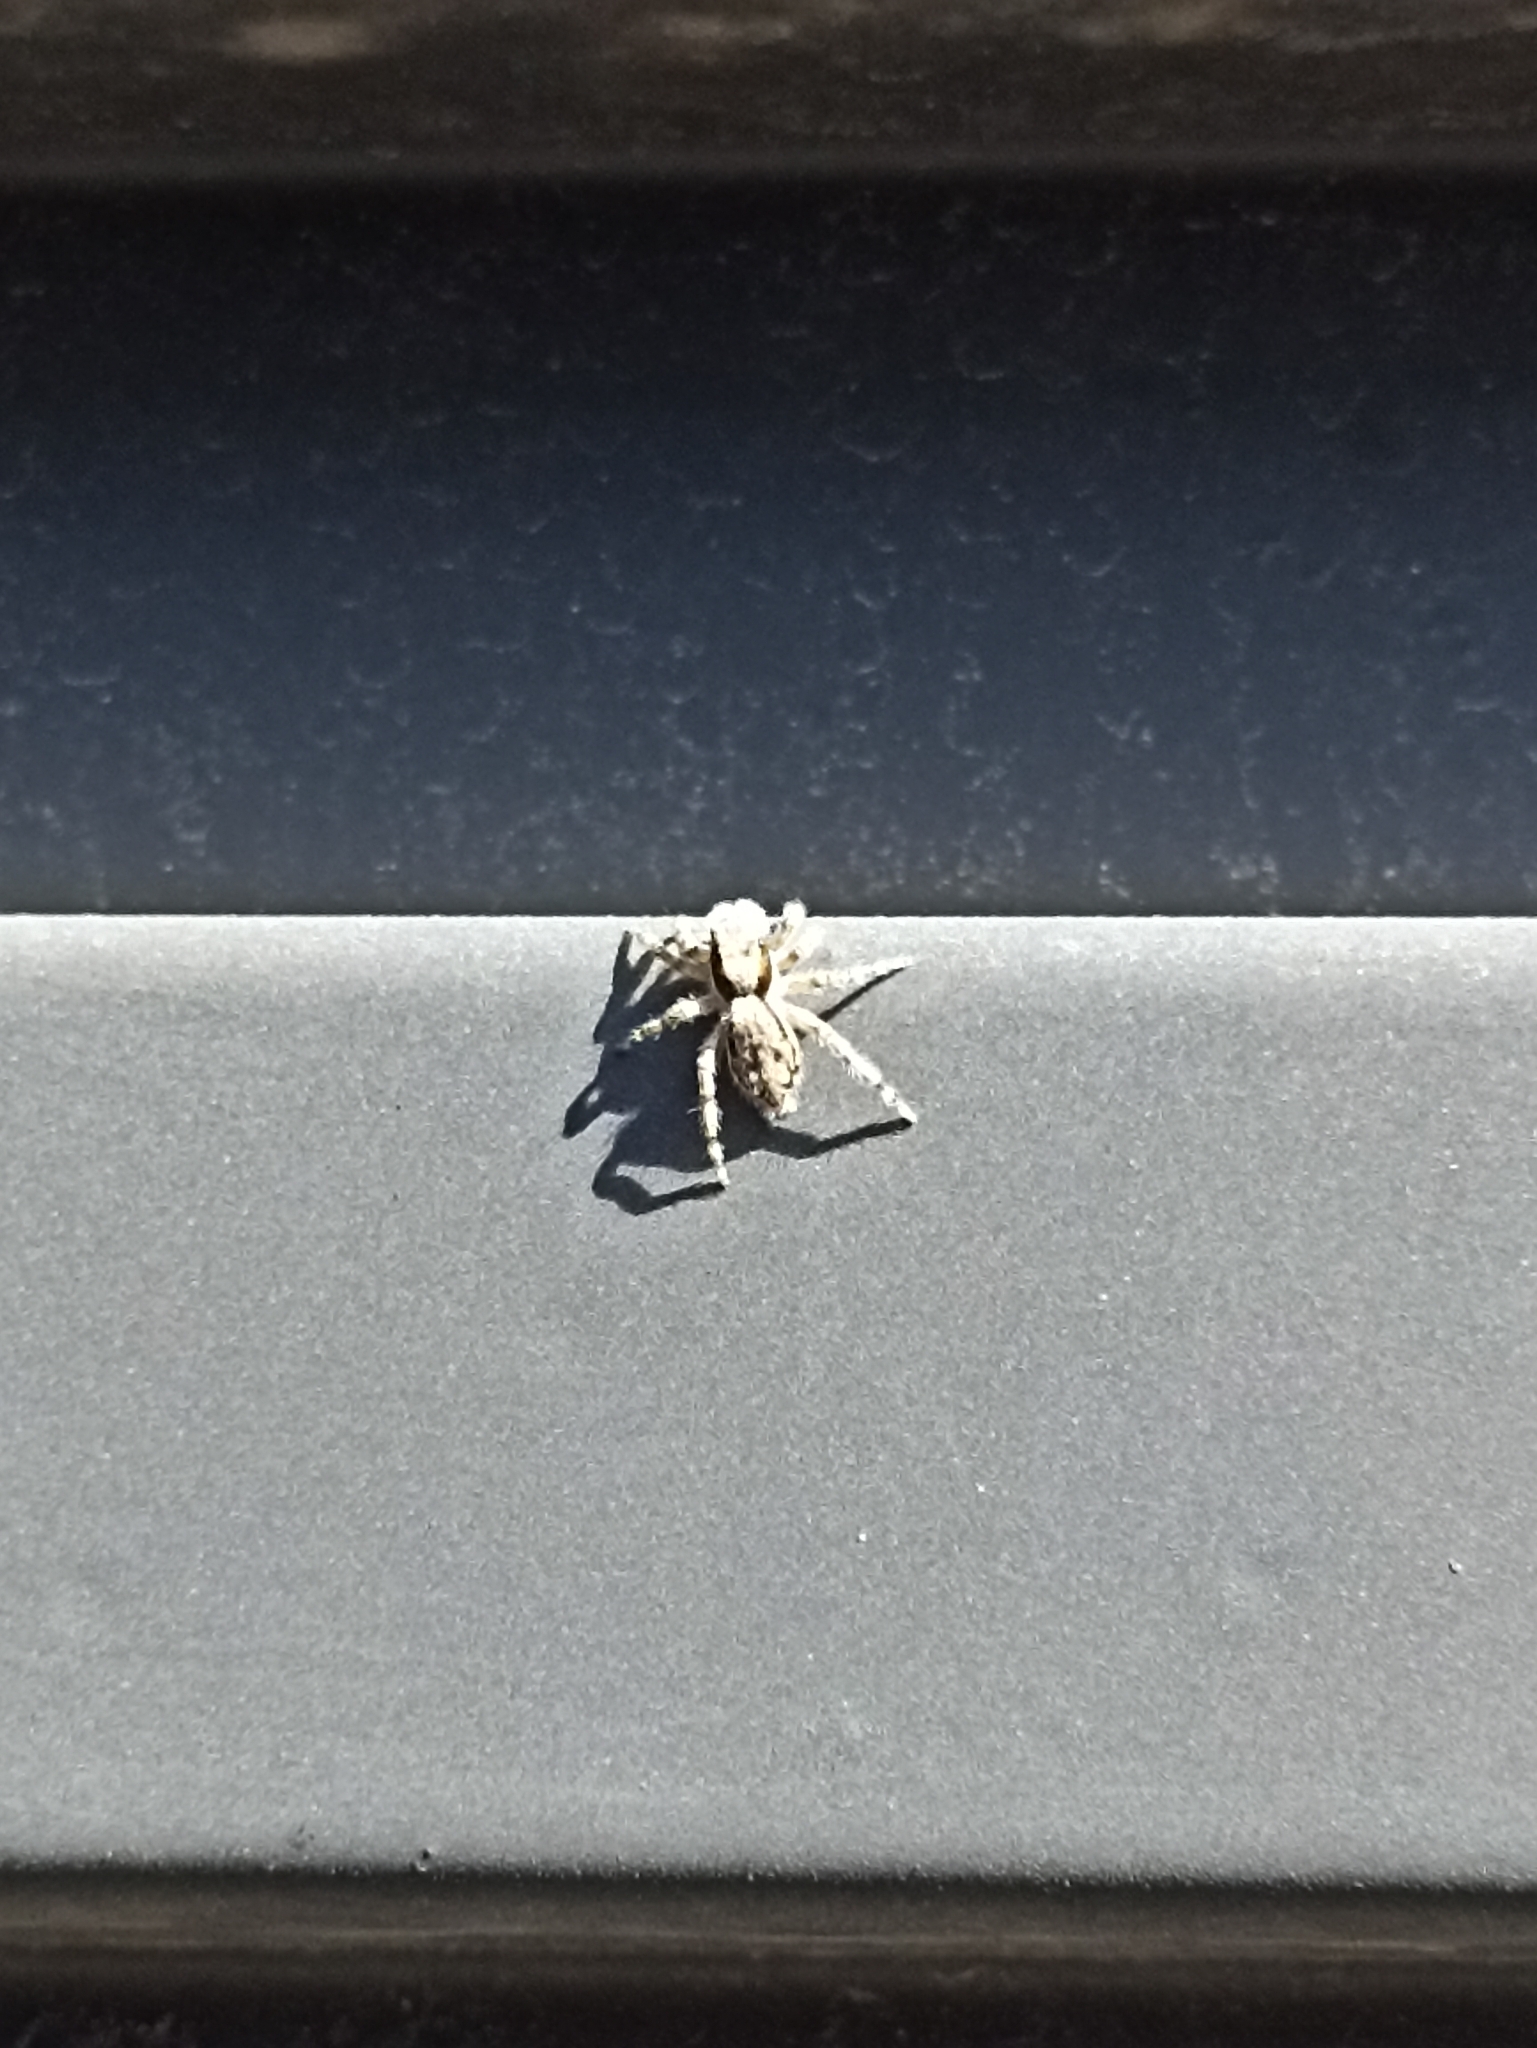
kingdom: Animalia
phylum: Arthropoda
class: Arachnida
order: Araneae
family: Salticidae
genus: Menemerus
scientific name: Menemerus bivittatus
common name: Gray wall jumper
